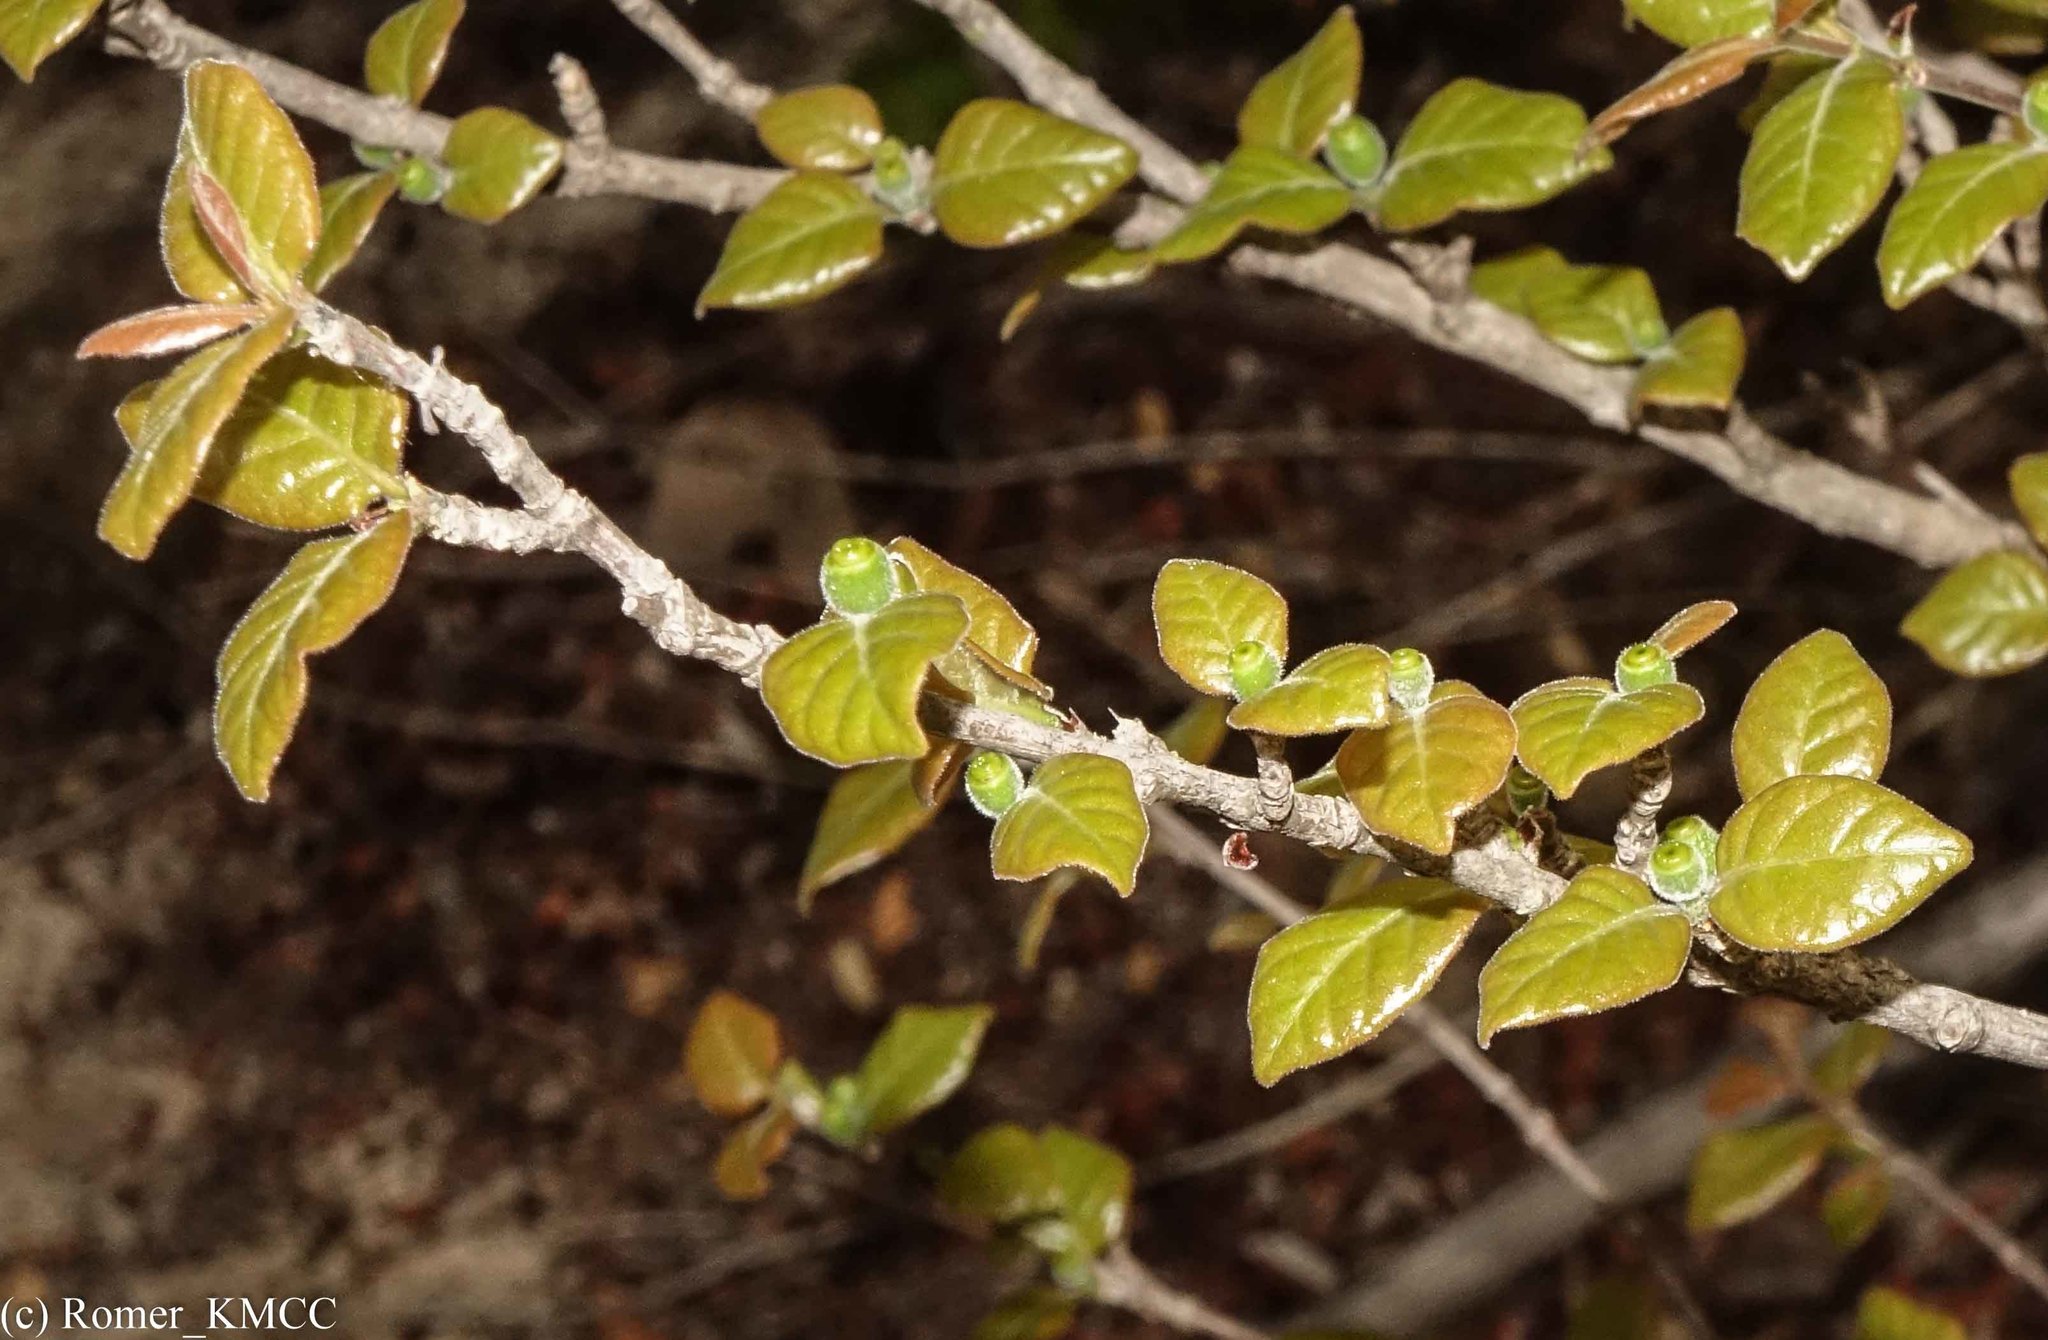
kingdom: Plantae
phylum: Tracheophyta
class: Magnoliopsida
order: Gentianales
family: Rubiaceae
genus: Coffea
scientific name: Coffea bissetiae
